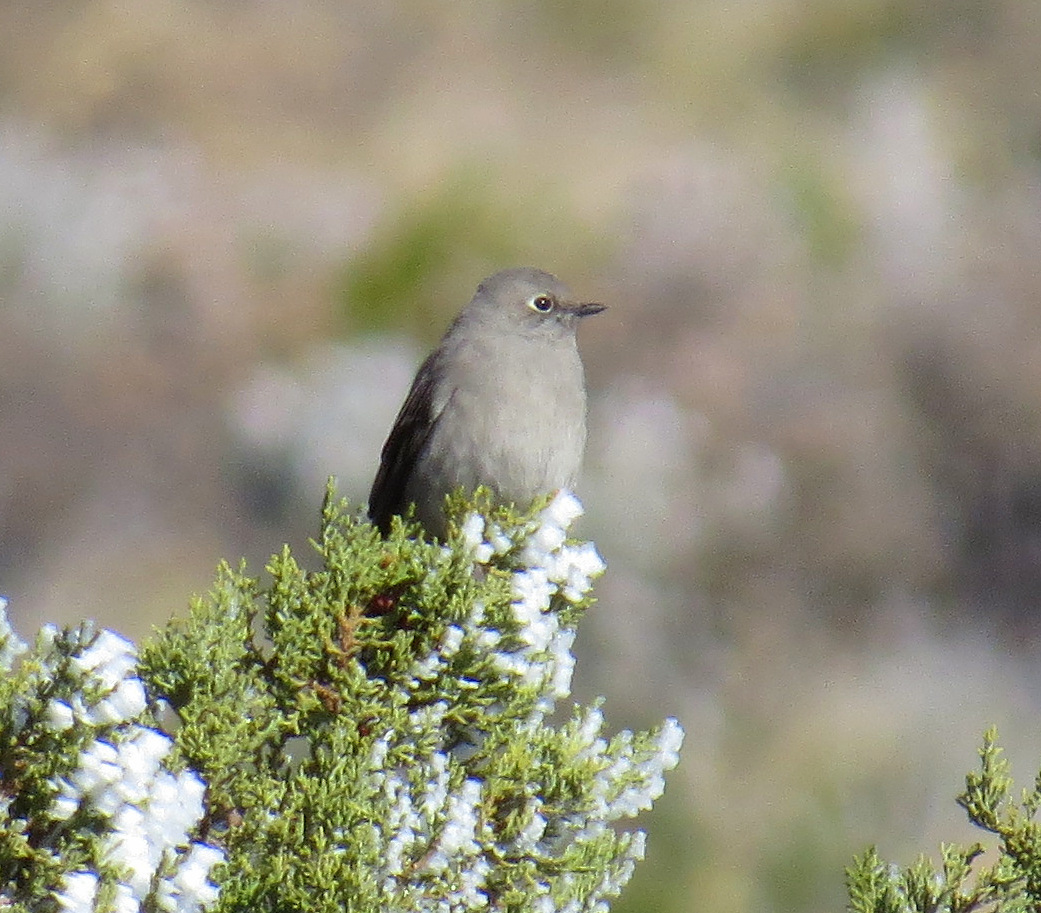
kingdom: Animalia
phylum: Chordata
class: Aves
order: Passeriformes
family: Turdidae
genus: Myadestes
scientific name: Myadestes townsendi
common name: Townsend's solitaire
